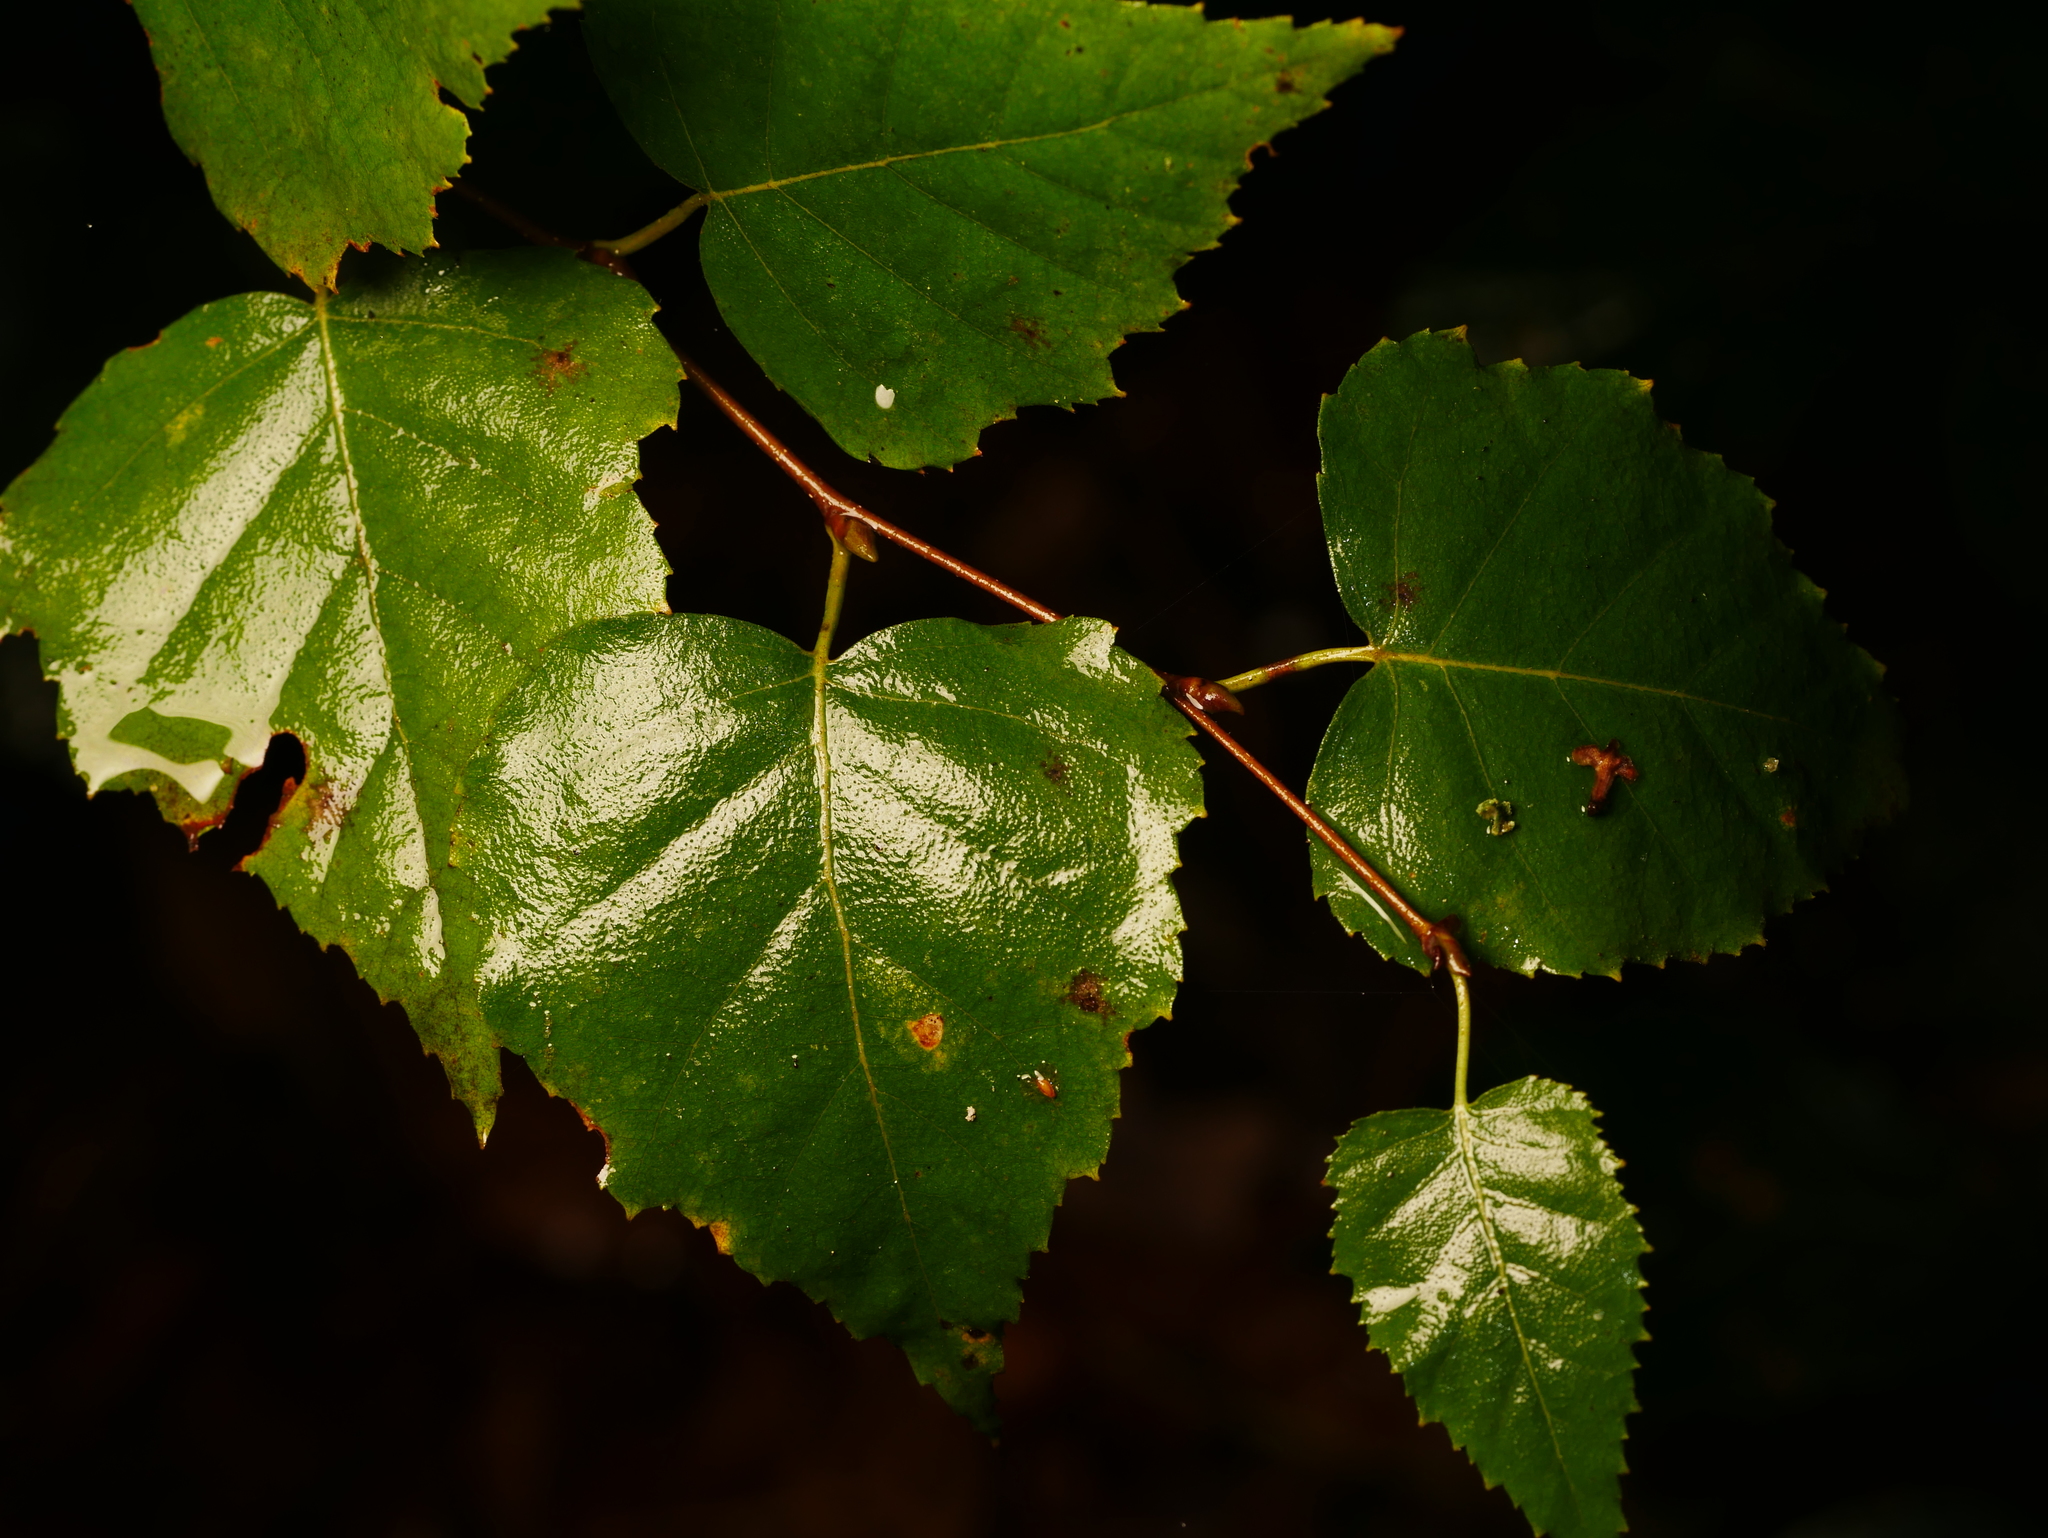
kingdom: Plantae
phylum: Tracheophyta
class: Magnoliopsida
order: Fagales
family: Betulaceae
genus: Betula
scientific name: Betula pendula
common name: Silver birch
